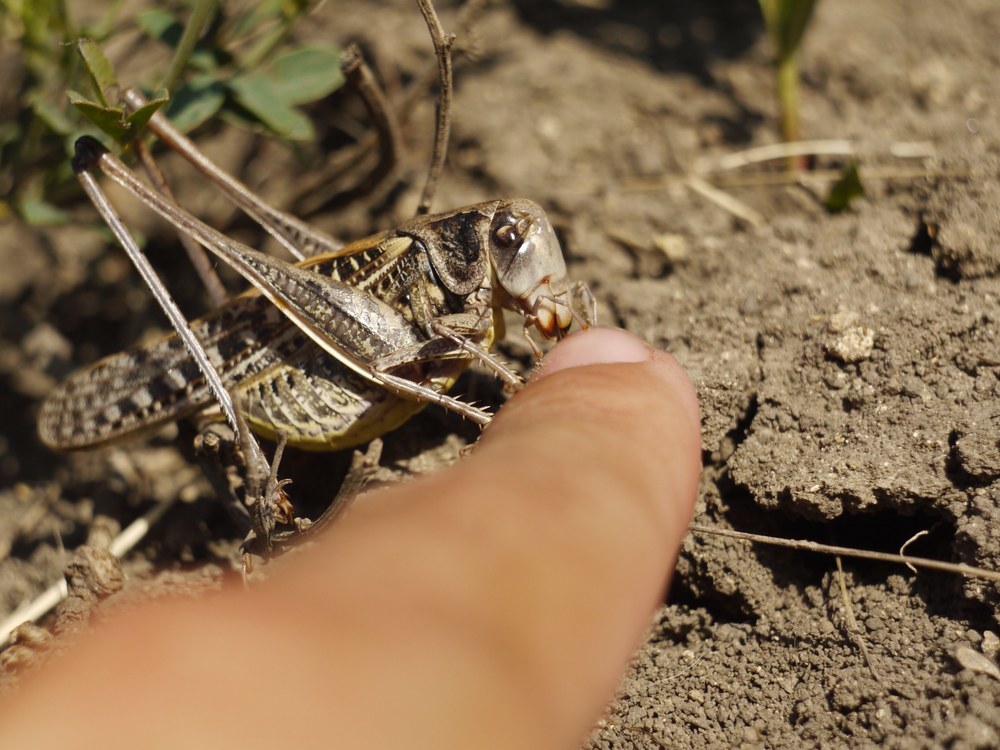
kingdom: Animalia
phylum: Arthropoda
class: Insecta
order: Orthoptera
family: Tettigoniidae
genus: Decticus
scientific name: Decticus verrucivorus
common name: Wart-biter
